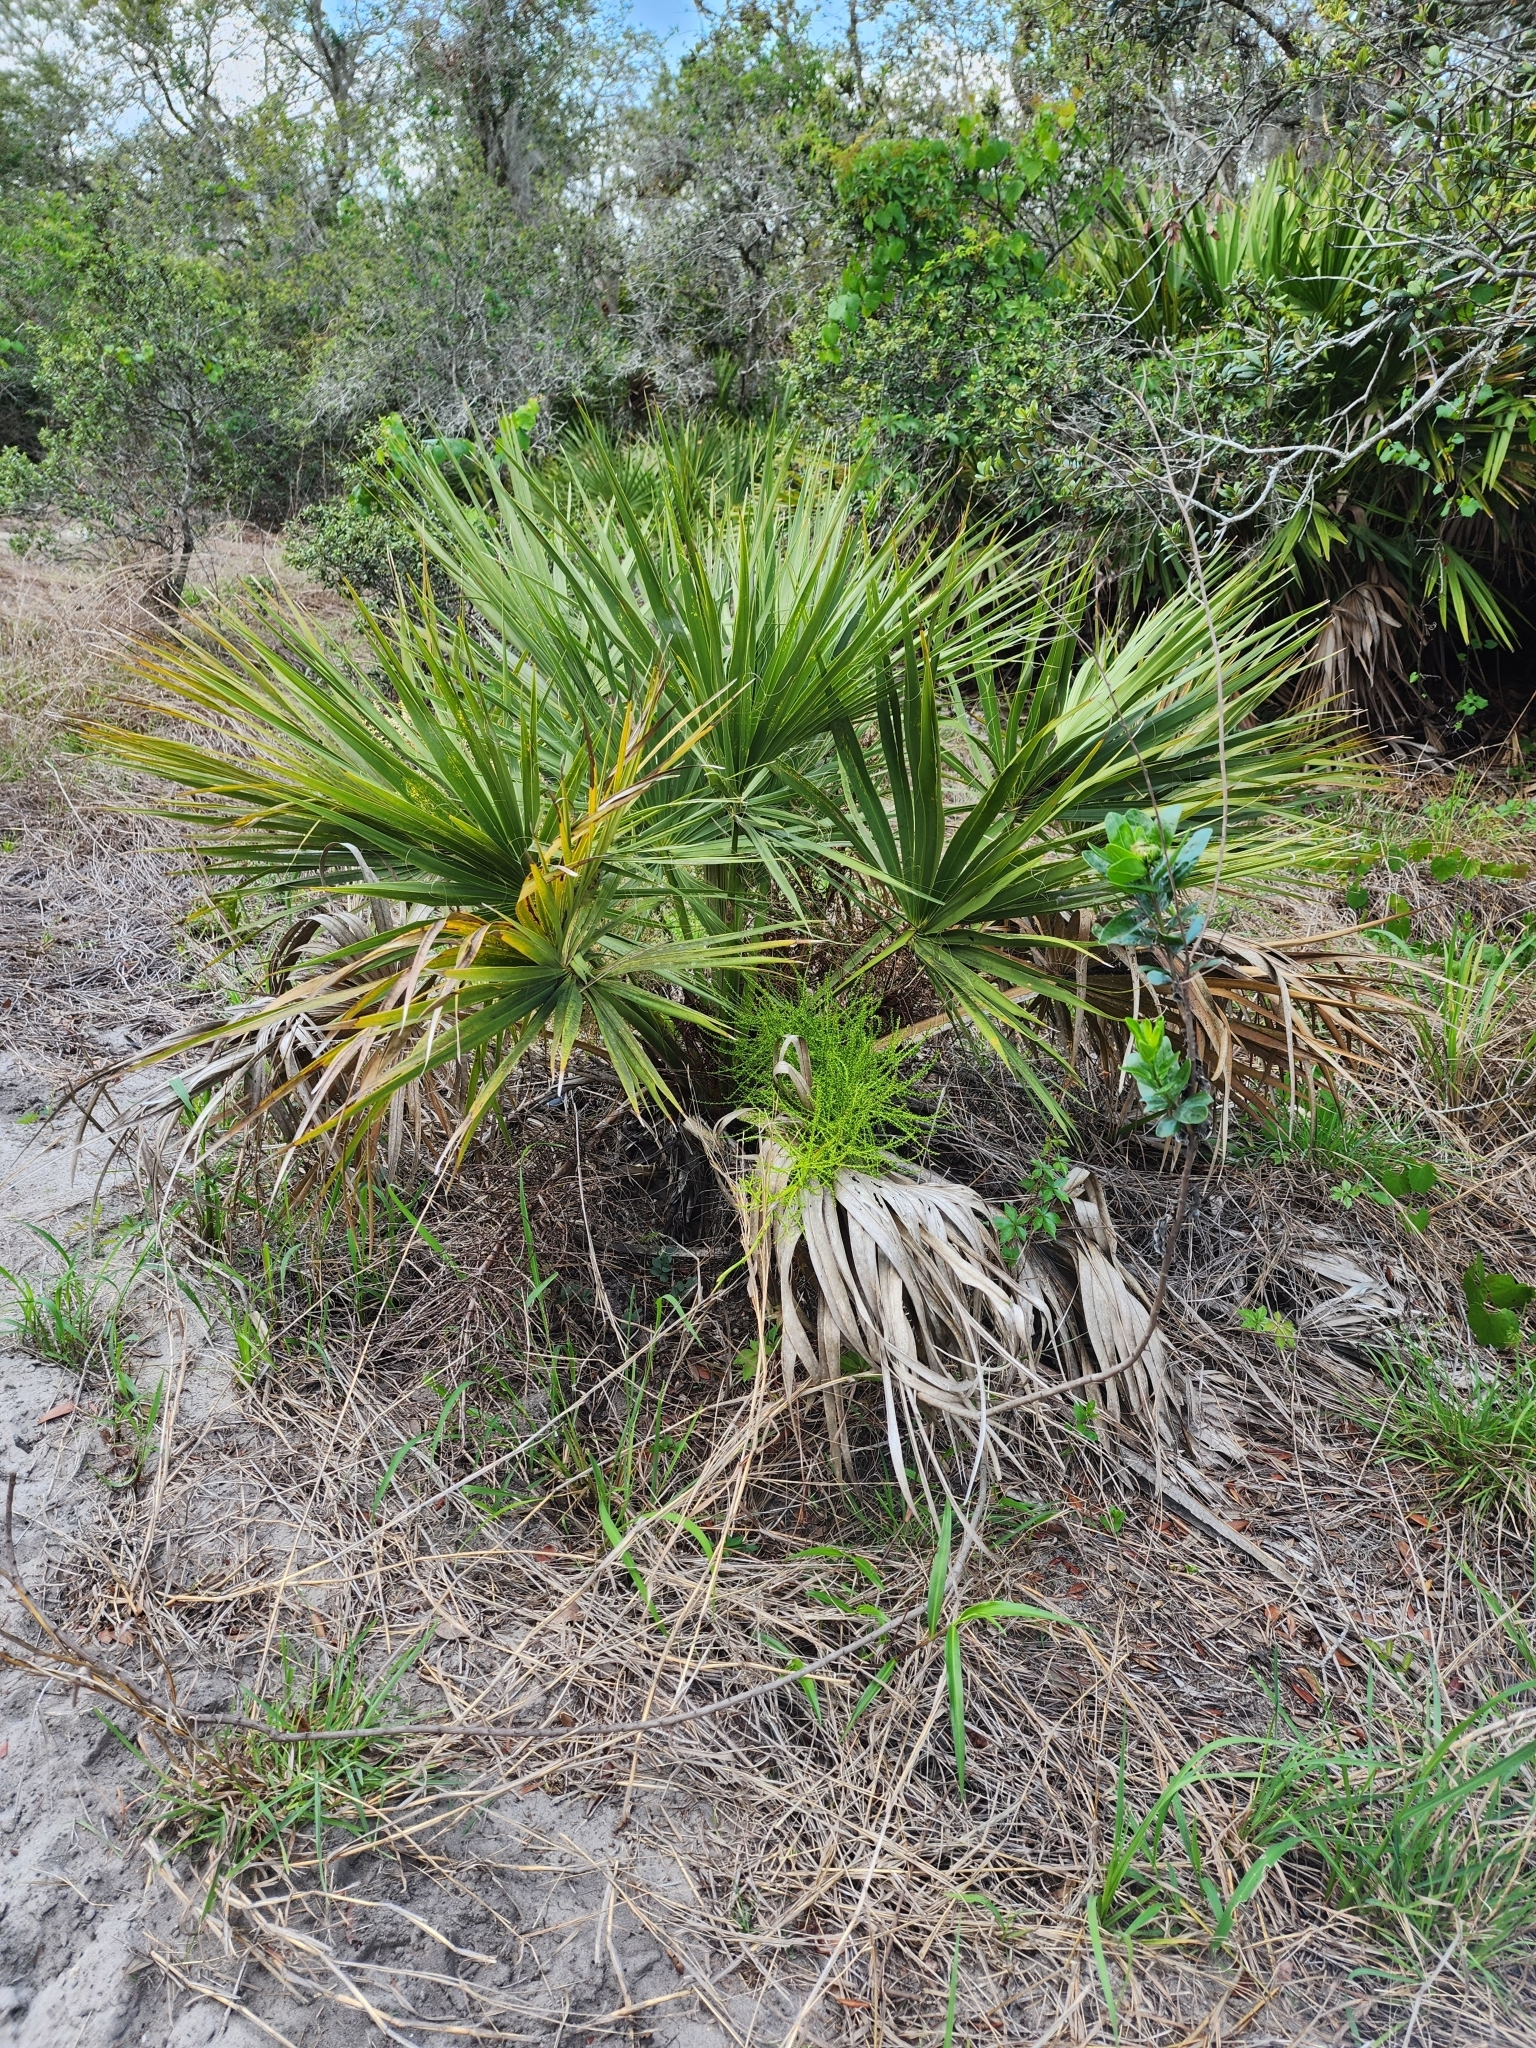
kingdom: Plantae
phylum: Tracheophyta
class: Liliopsida
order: Arecales
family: Arecaceae
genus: Sabal
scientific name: Sabal etonia
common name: Dwarf palmetto
